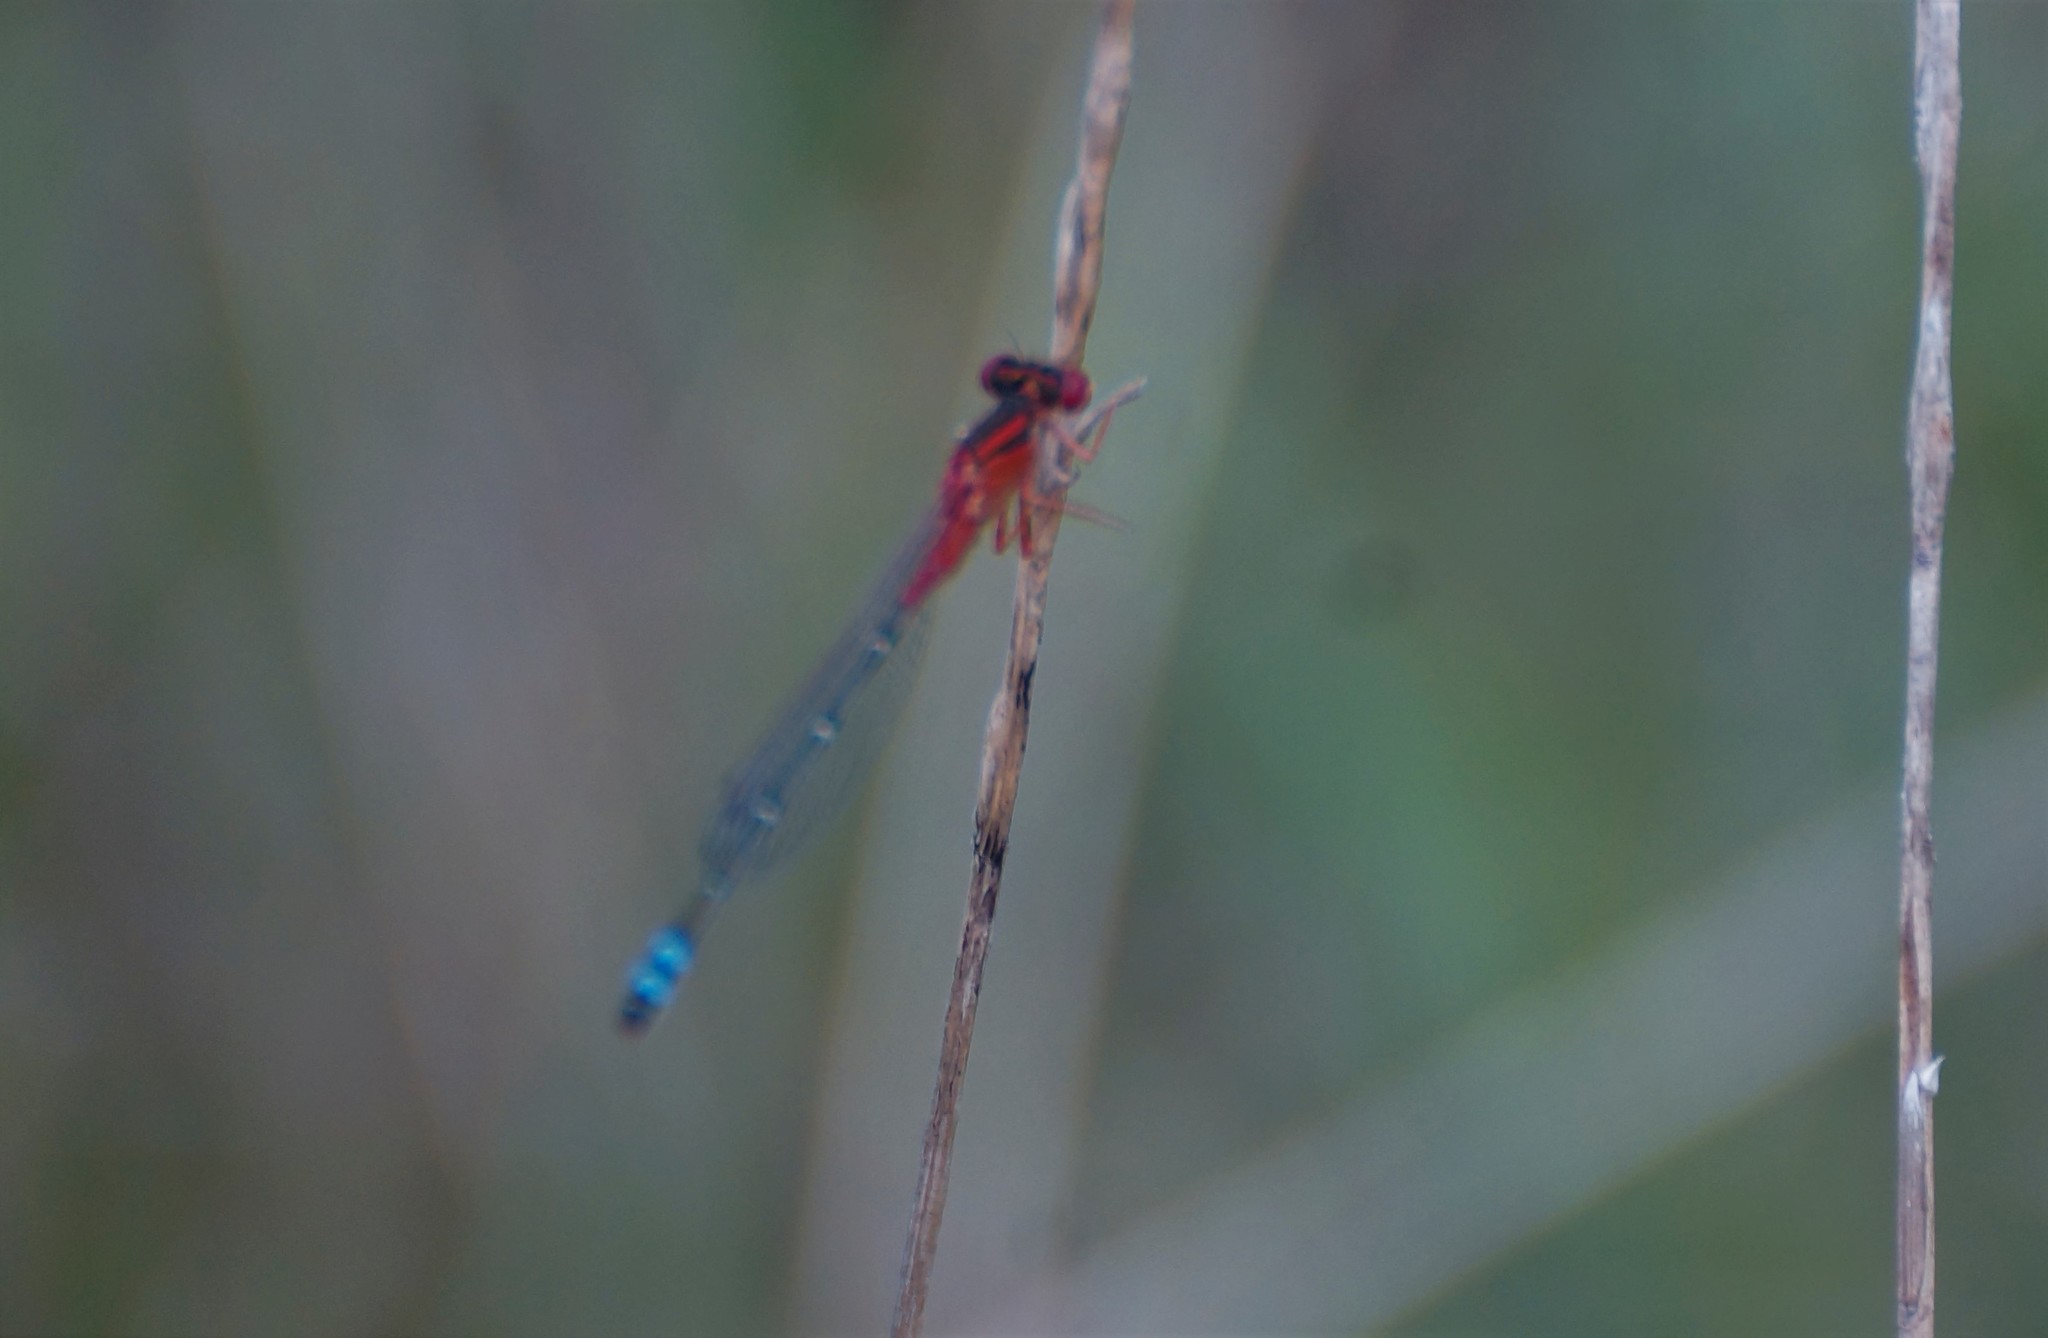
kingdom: Animalia
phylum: Arthropoda
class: Insecta
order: Odonata
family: Coenagrionidae
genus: Xanthagrion
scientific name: Xanthagrion erythroneurum
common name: Red and blue damsel
